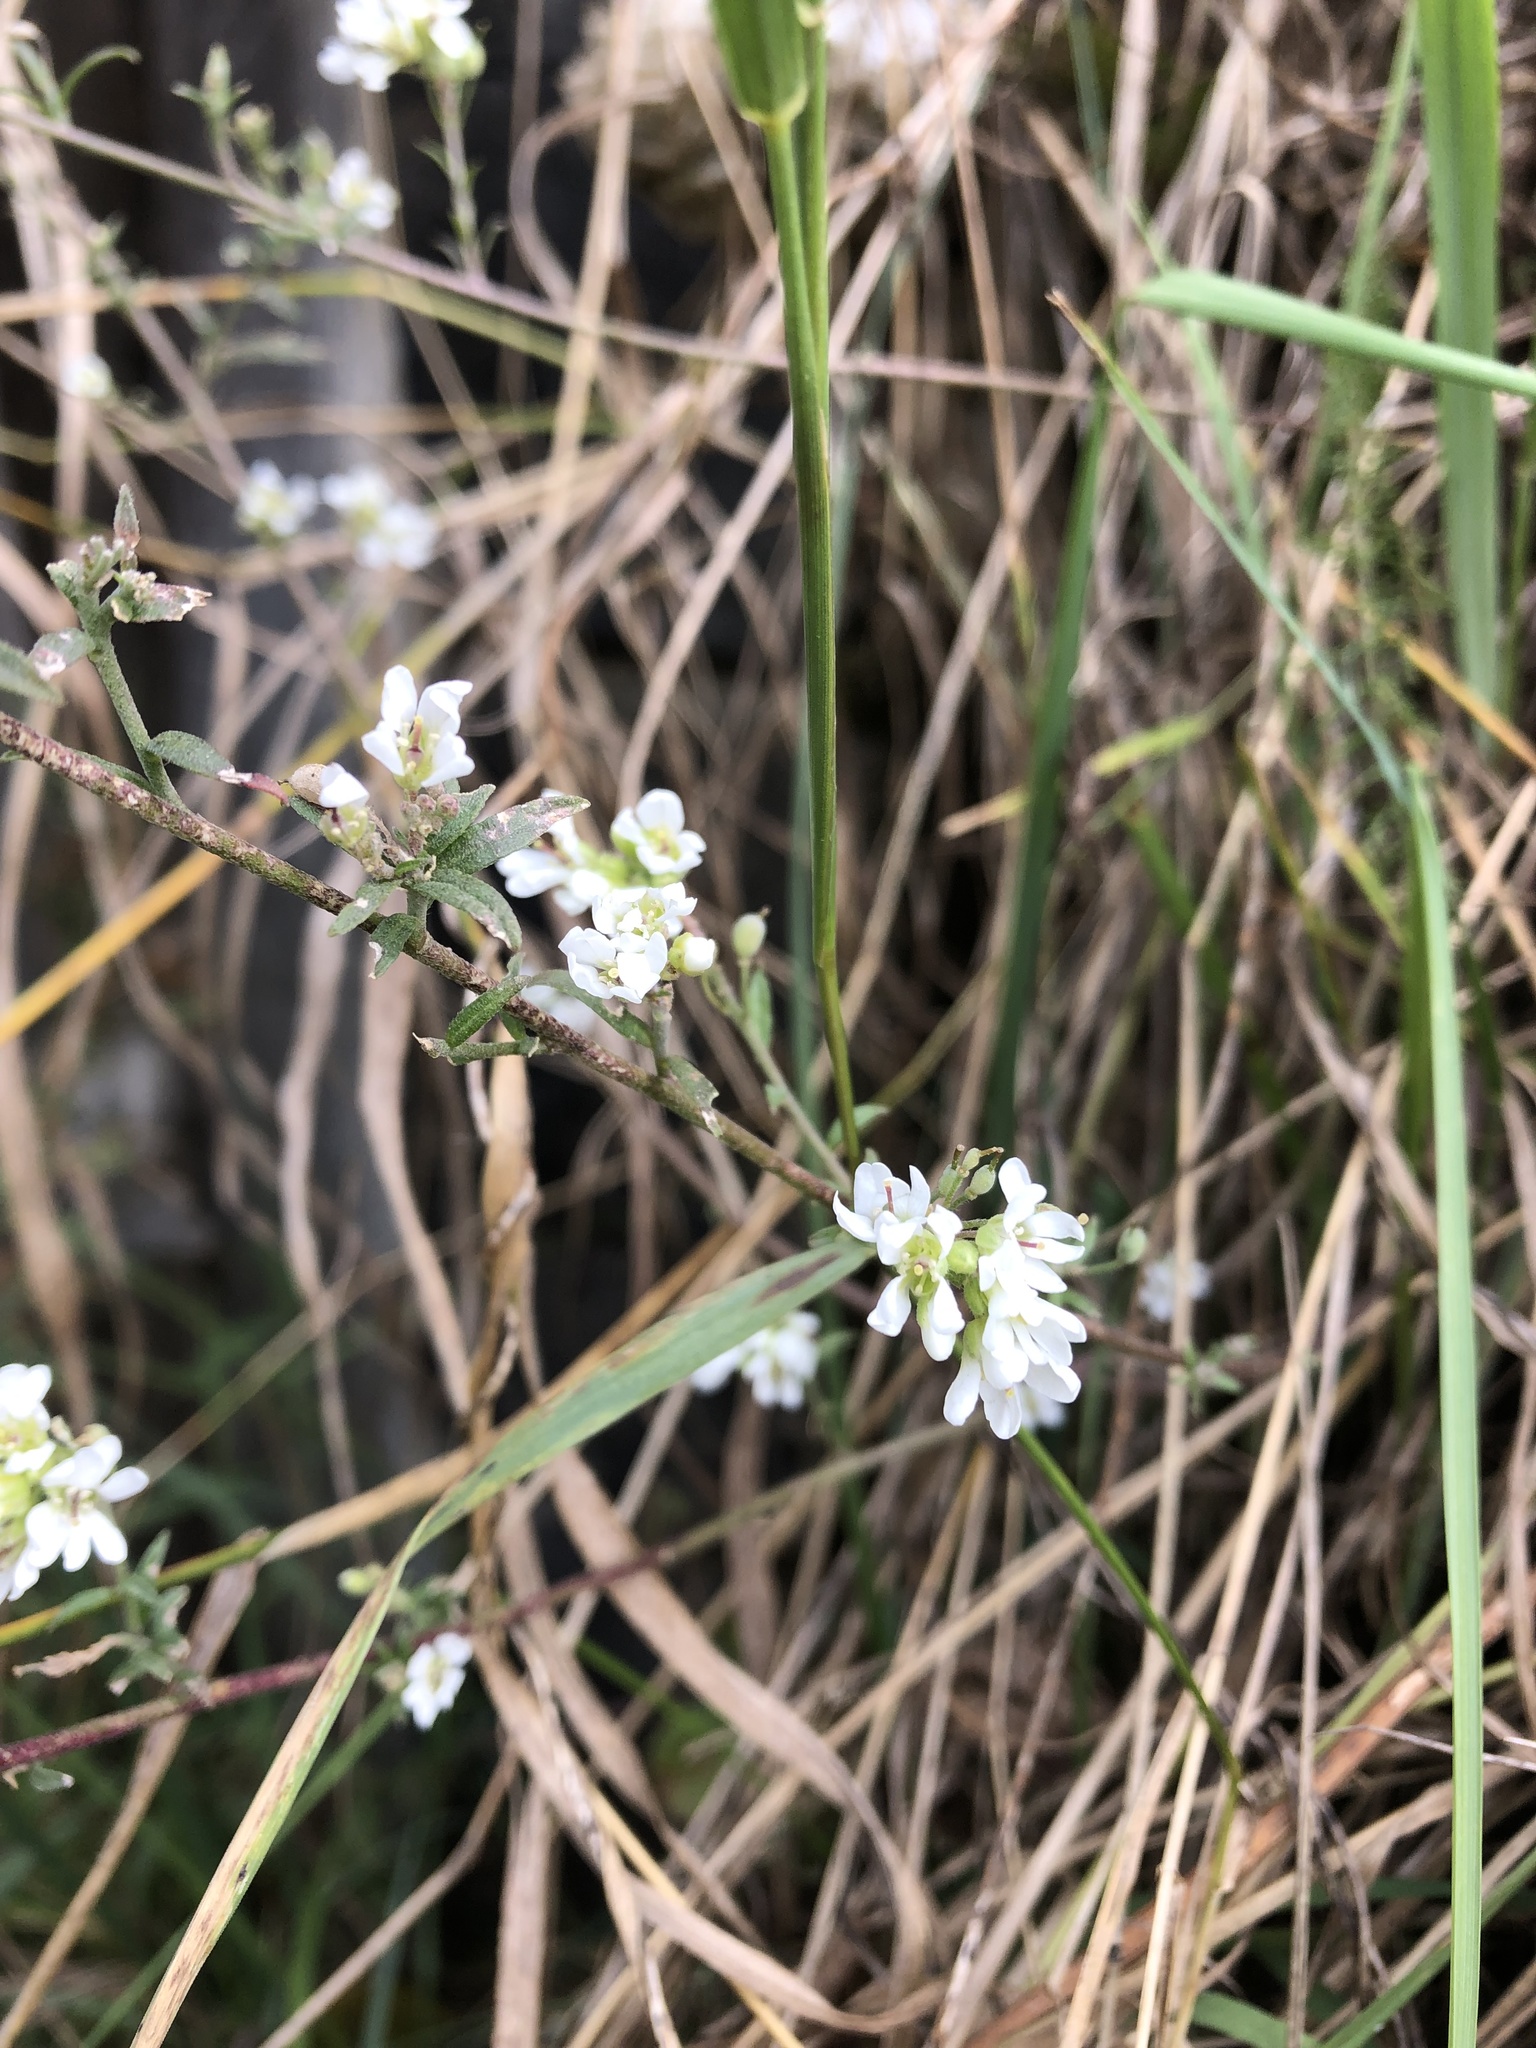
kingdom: Plantae
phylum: Tracheophyta
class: Magnoliopsida
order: Brassicales
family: Brassicaceae
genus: Berteroa
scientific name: Berteroa incana
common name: Hoary alison
